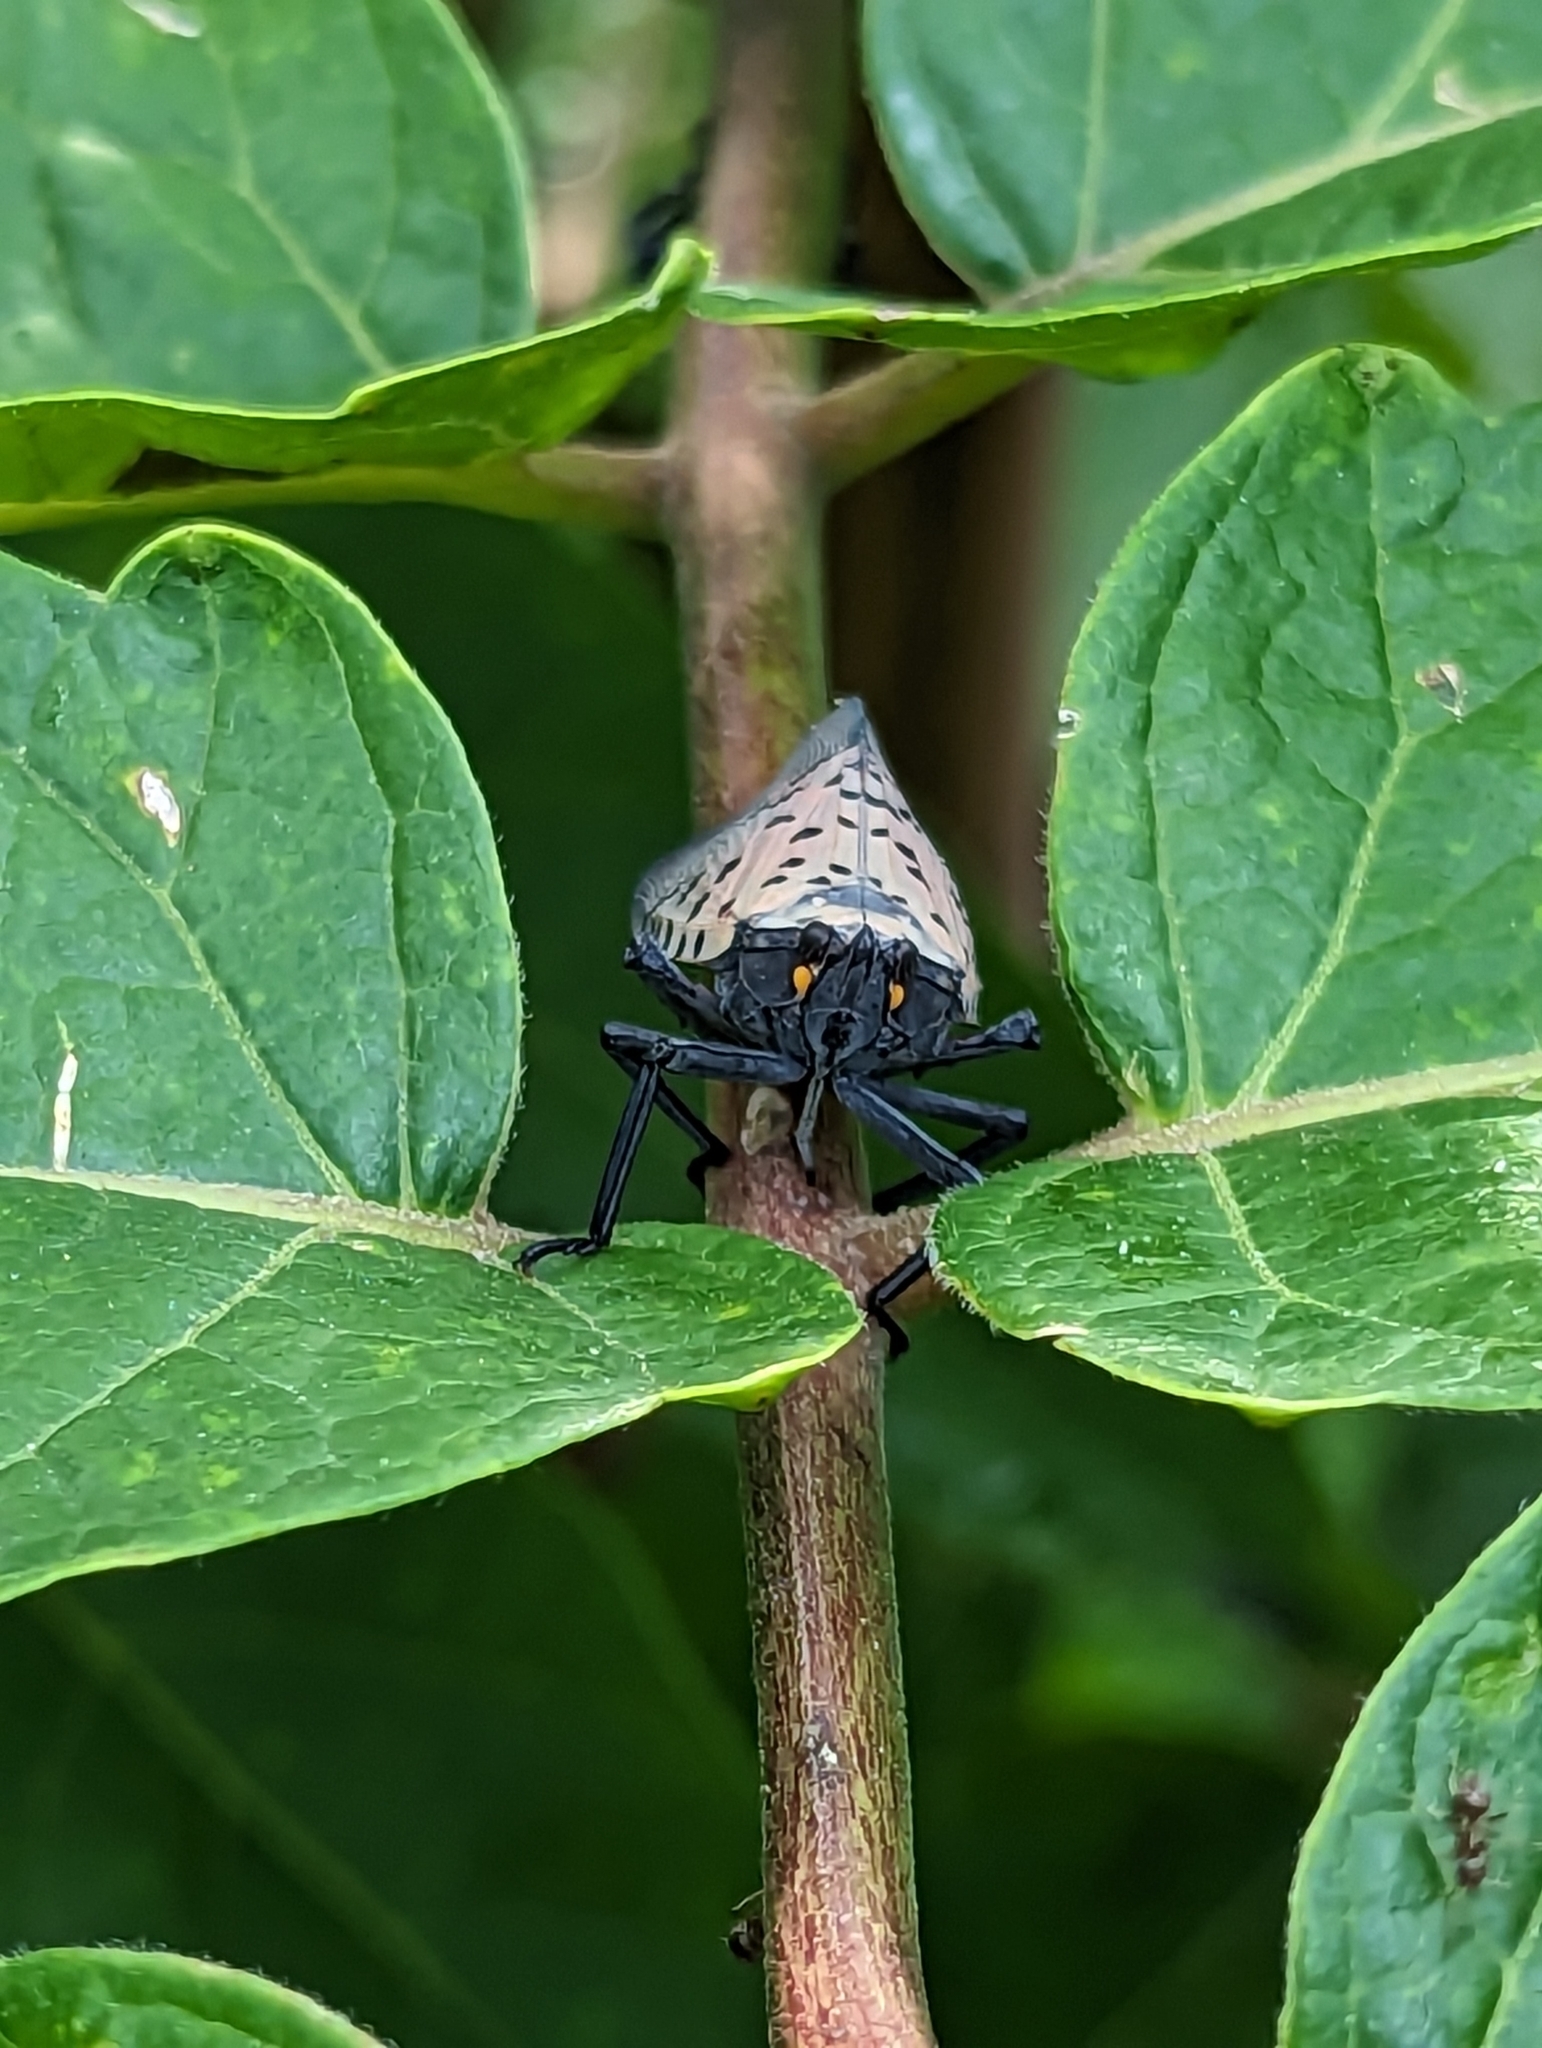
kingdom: Animalia
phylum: Arthropoda
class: Insecta
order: Hemiptera
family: Fulgoridae
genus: Lycorma
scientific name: Lycorma delicatula
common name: Spotted lanternfly
